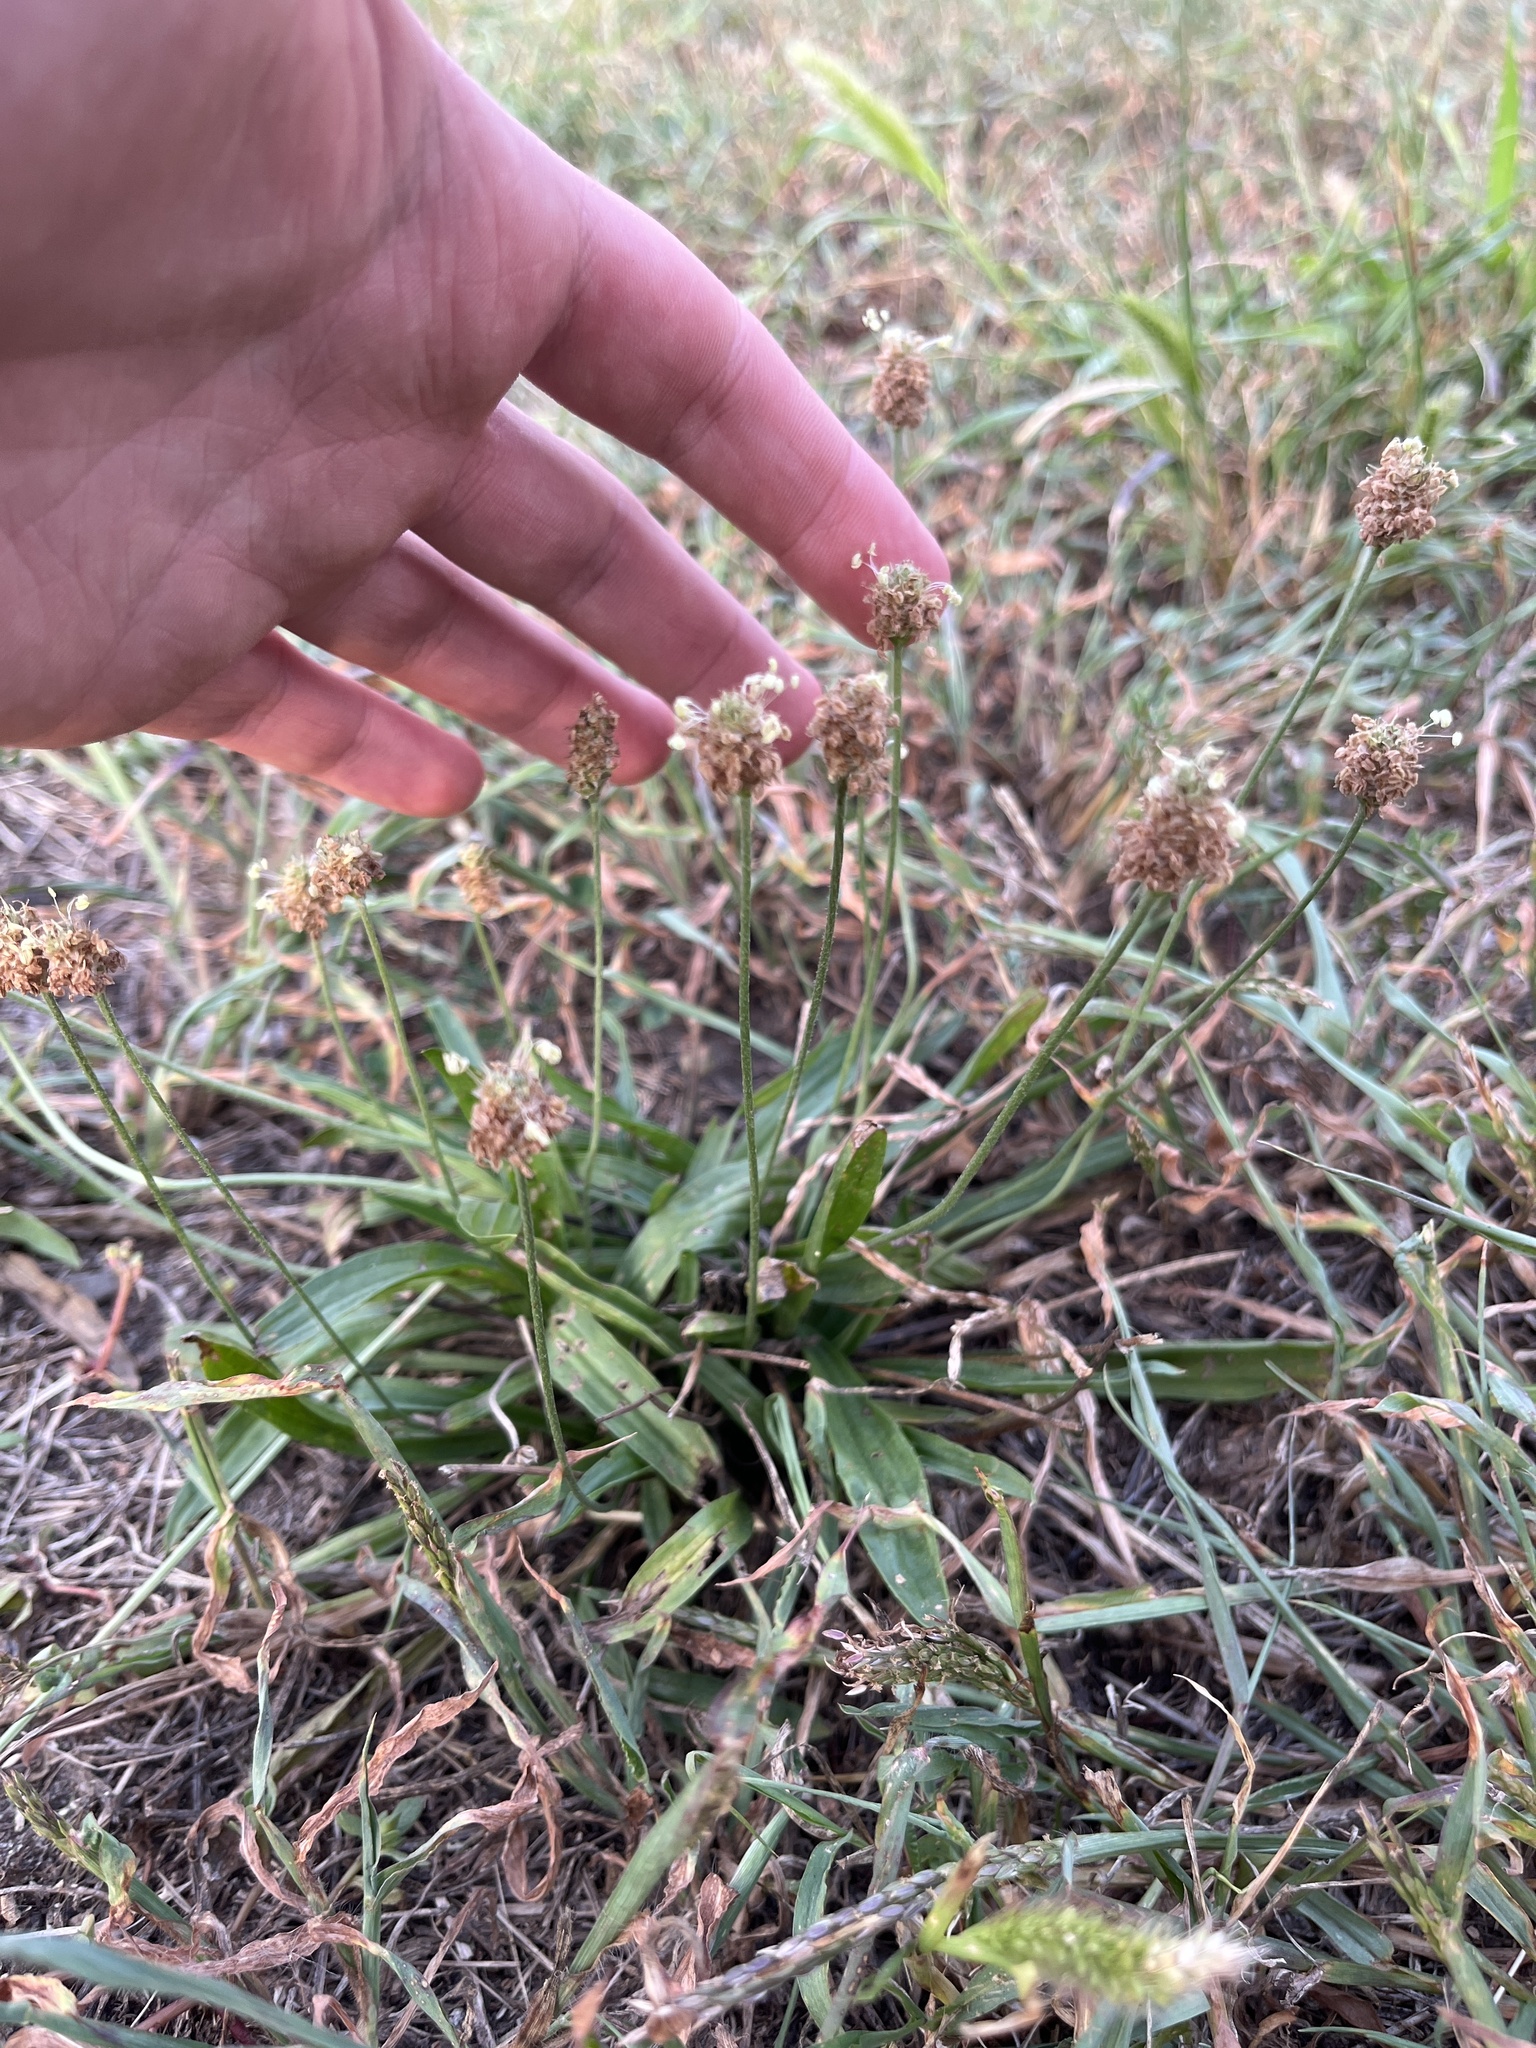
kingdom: Plantae
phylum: Tracheophyta
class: Magnoliopsida
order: Lamiales
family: Plantaginaceae
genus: Plantago
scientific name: Plantago lanceolata
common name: Ribwort plantain
